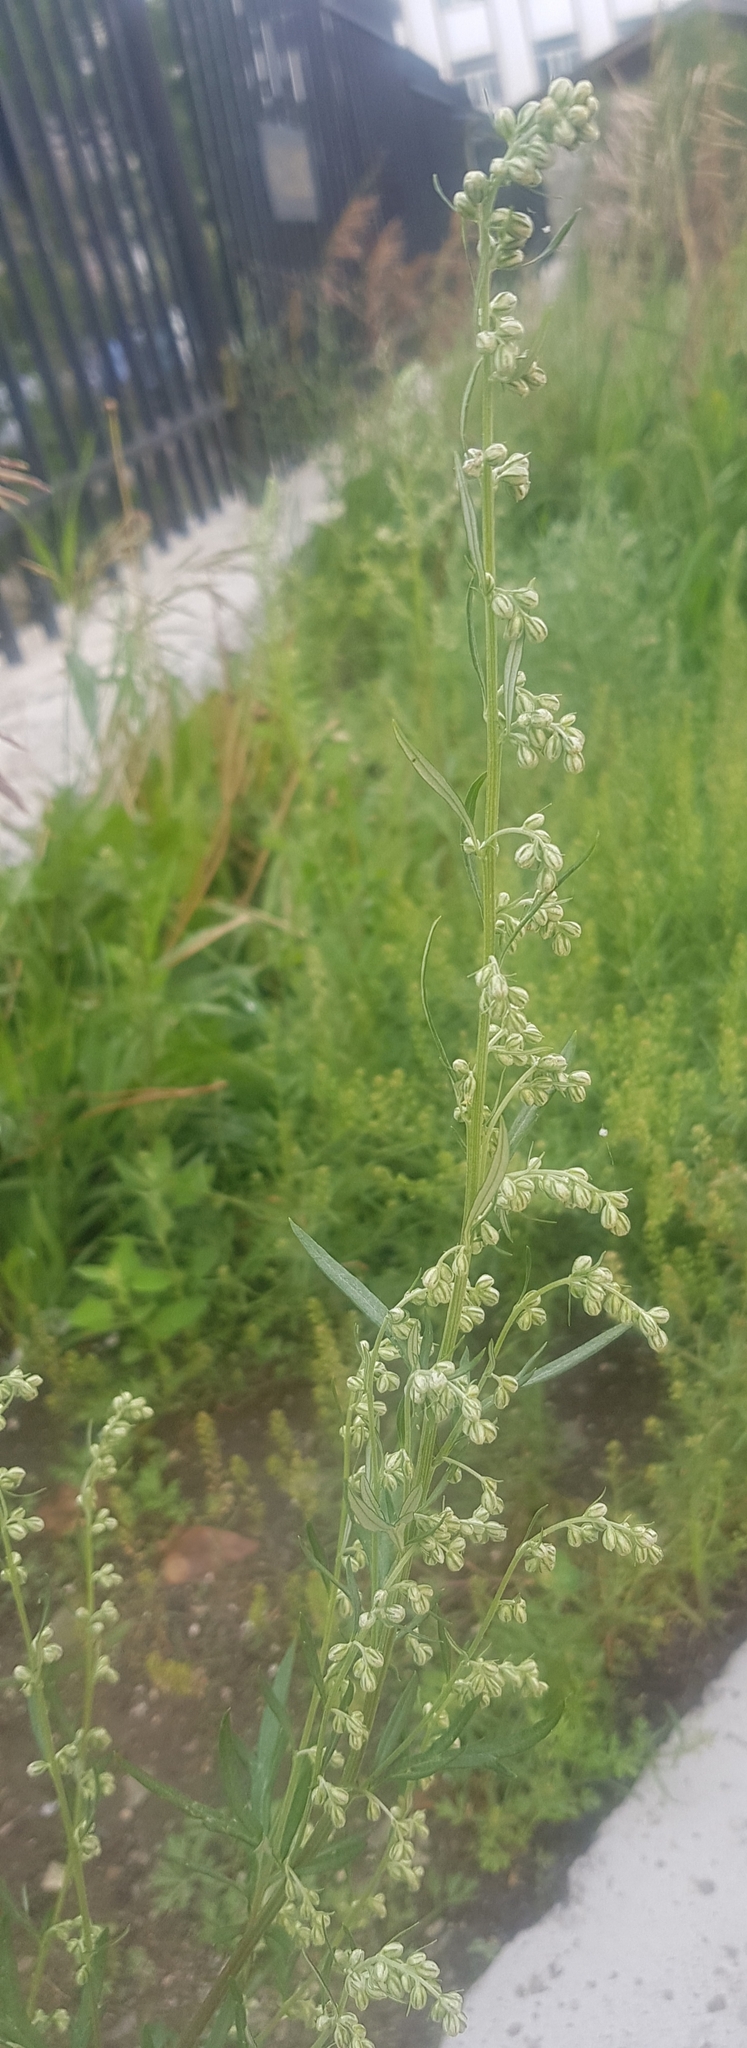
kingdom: Plantae
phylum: Tracheophyta
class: Magnoliopsida
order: Asterales
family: Asteraceae
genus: Artemisia
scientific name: Artemisia vulgaris
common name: Mugwort
